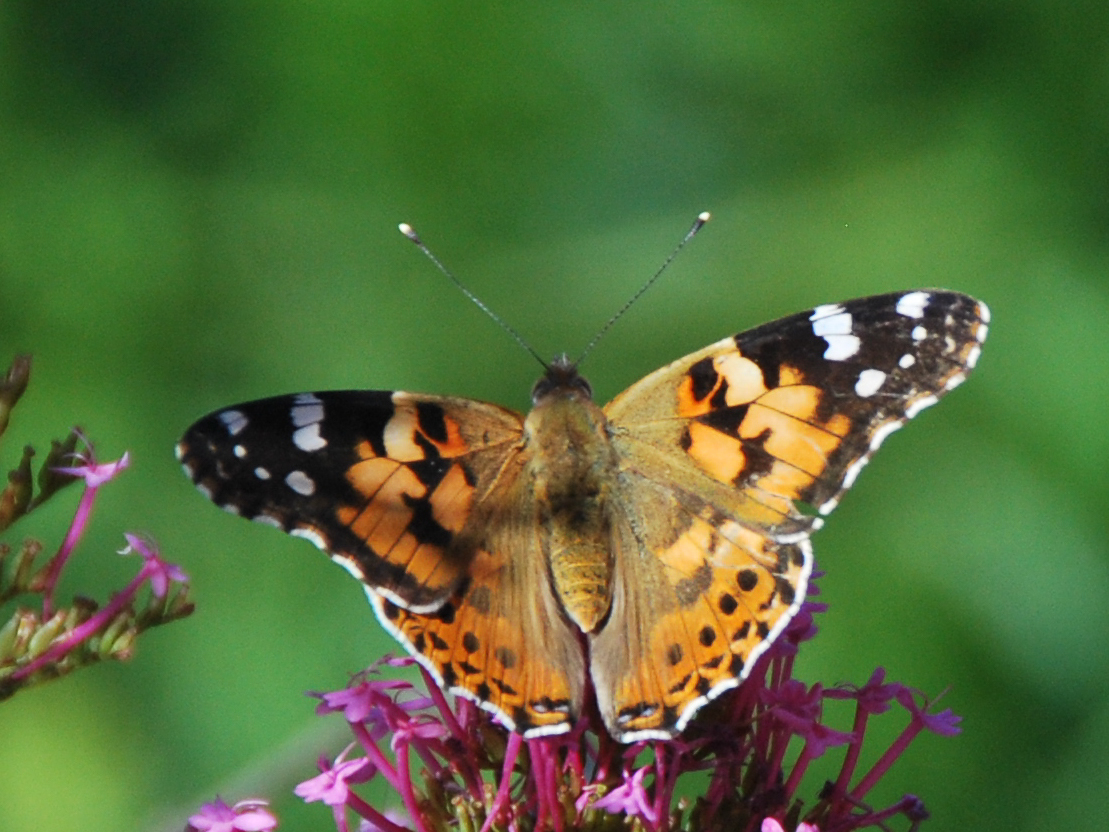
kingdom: Animalia
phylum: Arthropoda
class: Insecta
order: Lepidoptera
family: Nymphalidae
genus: Vanessa
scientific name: Vanessa cardui
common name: Painted lady
